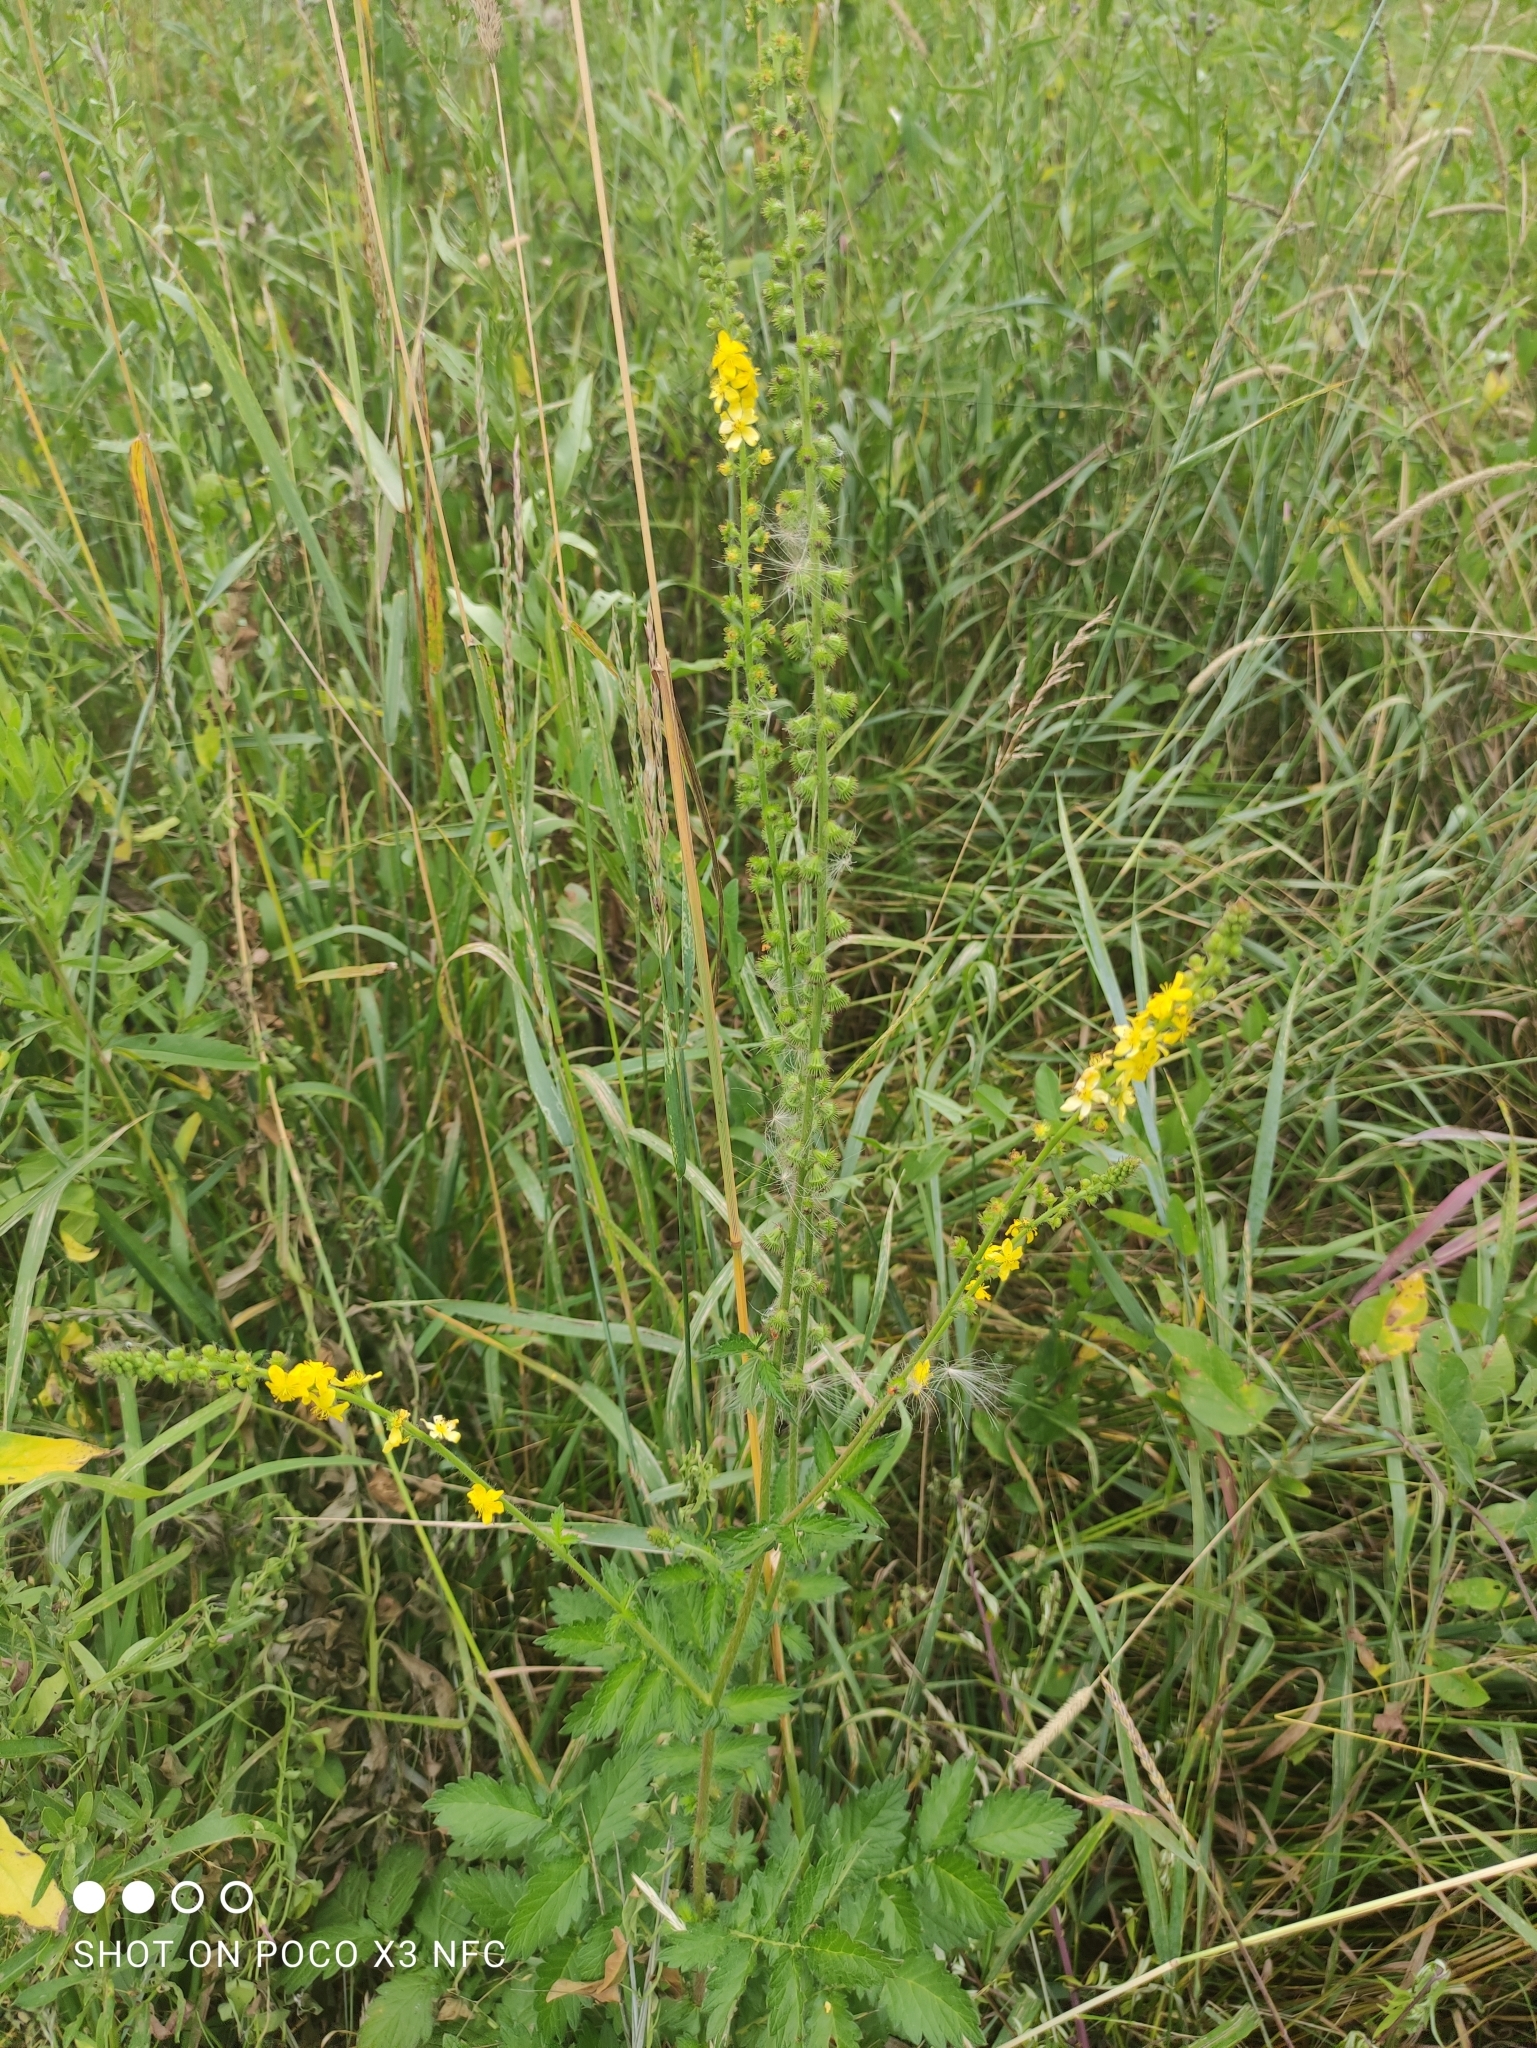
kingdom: Plantae
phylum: Tracheophyta
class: Magnoliopsida
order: Rosales
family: Rosaceae
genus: Agrimonia
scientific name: Agrimonia eupatoria
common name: Agrimony
